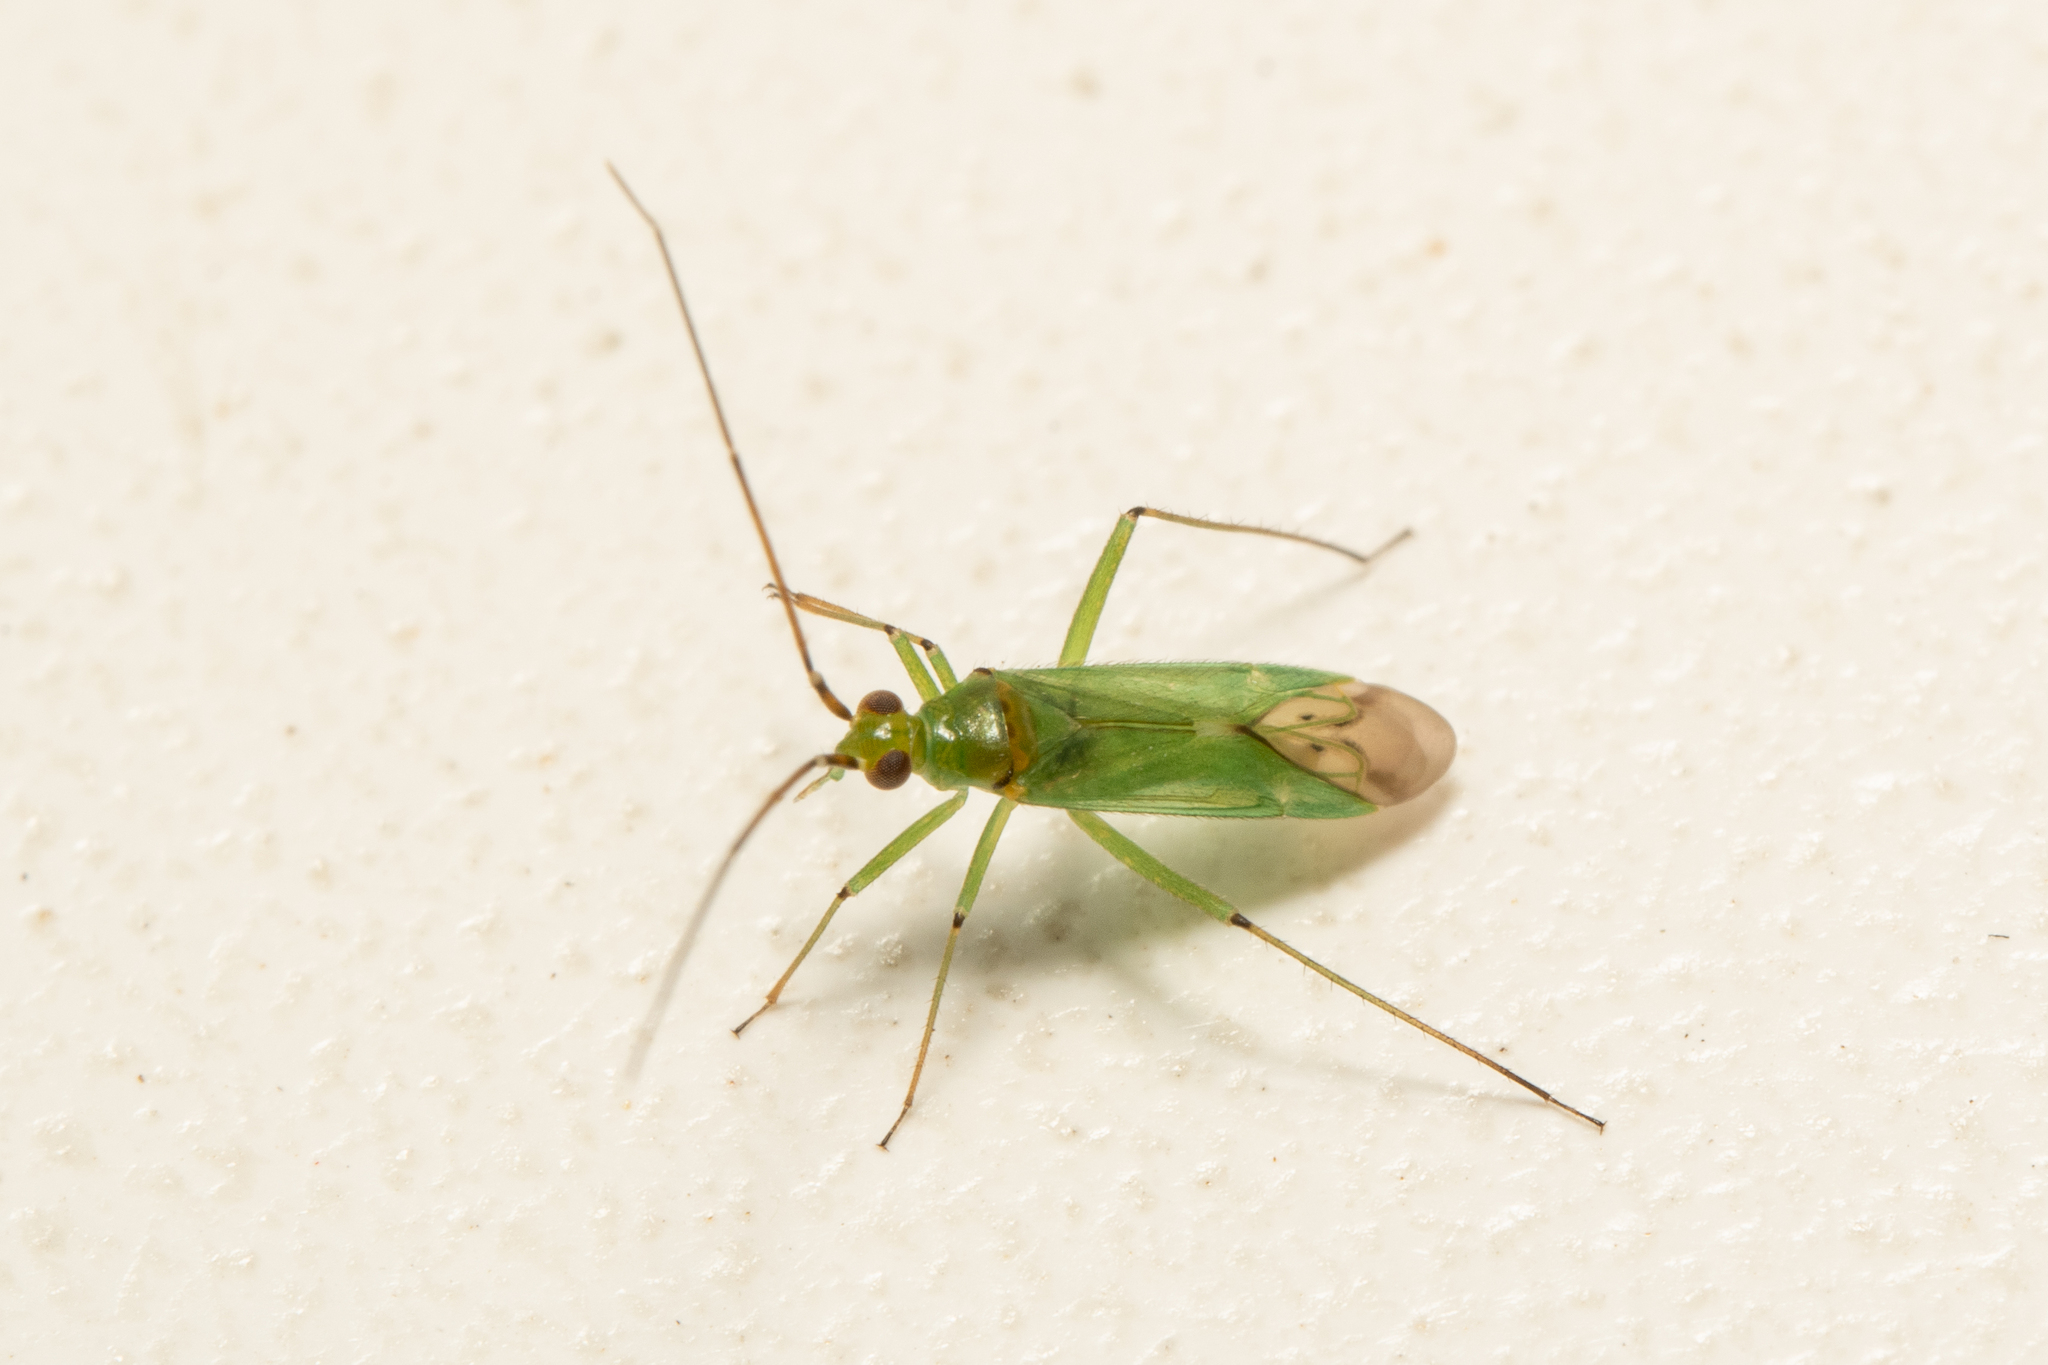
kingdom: Animalia
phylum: Arthropoda
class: Insecta
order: Hemiptera
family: Miridae
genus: Blepharidopterus
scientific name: Blepharidopterus angulatus
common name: Plant bug
